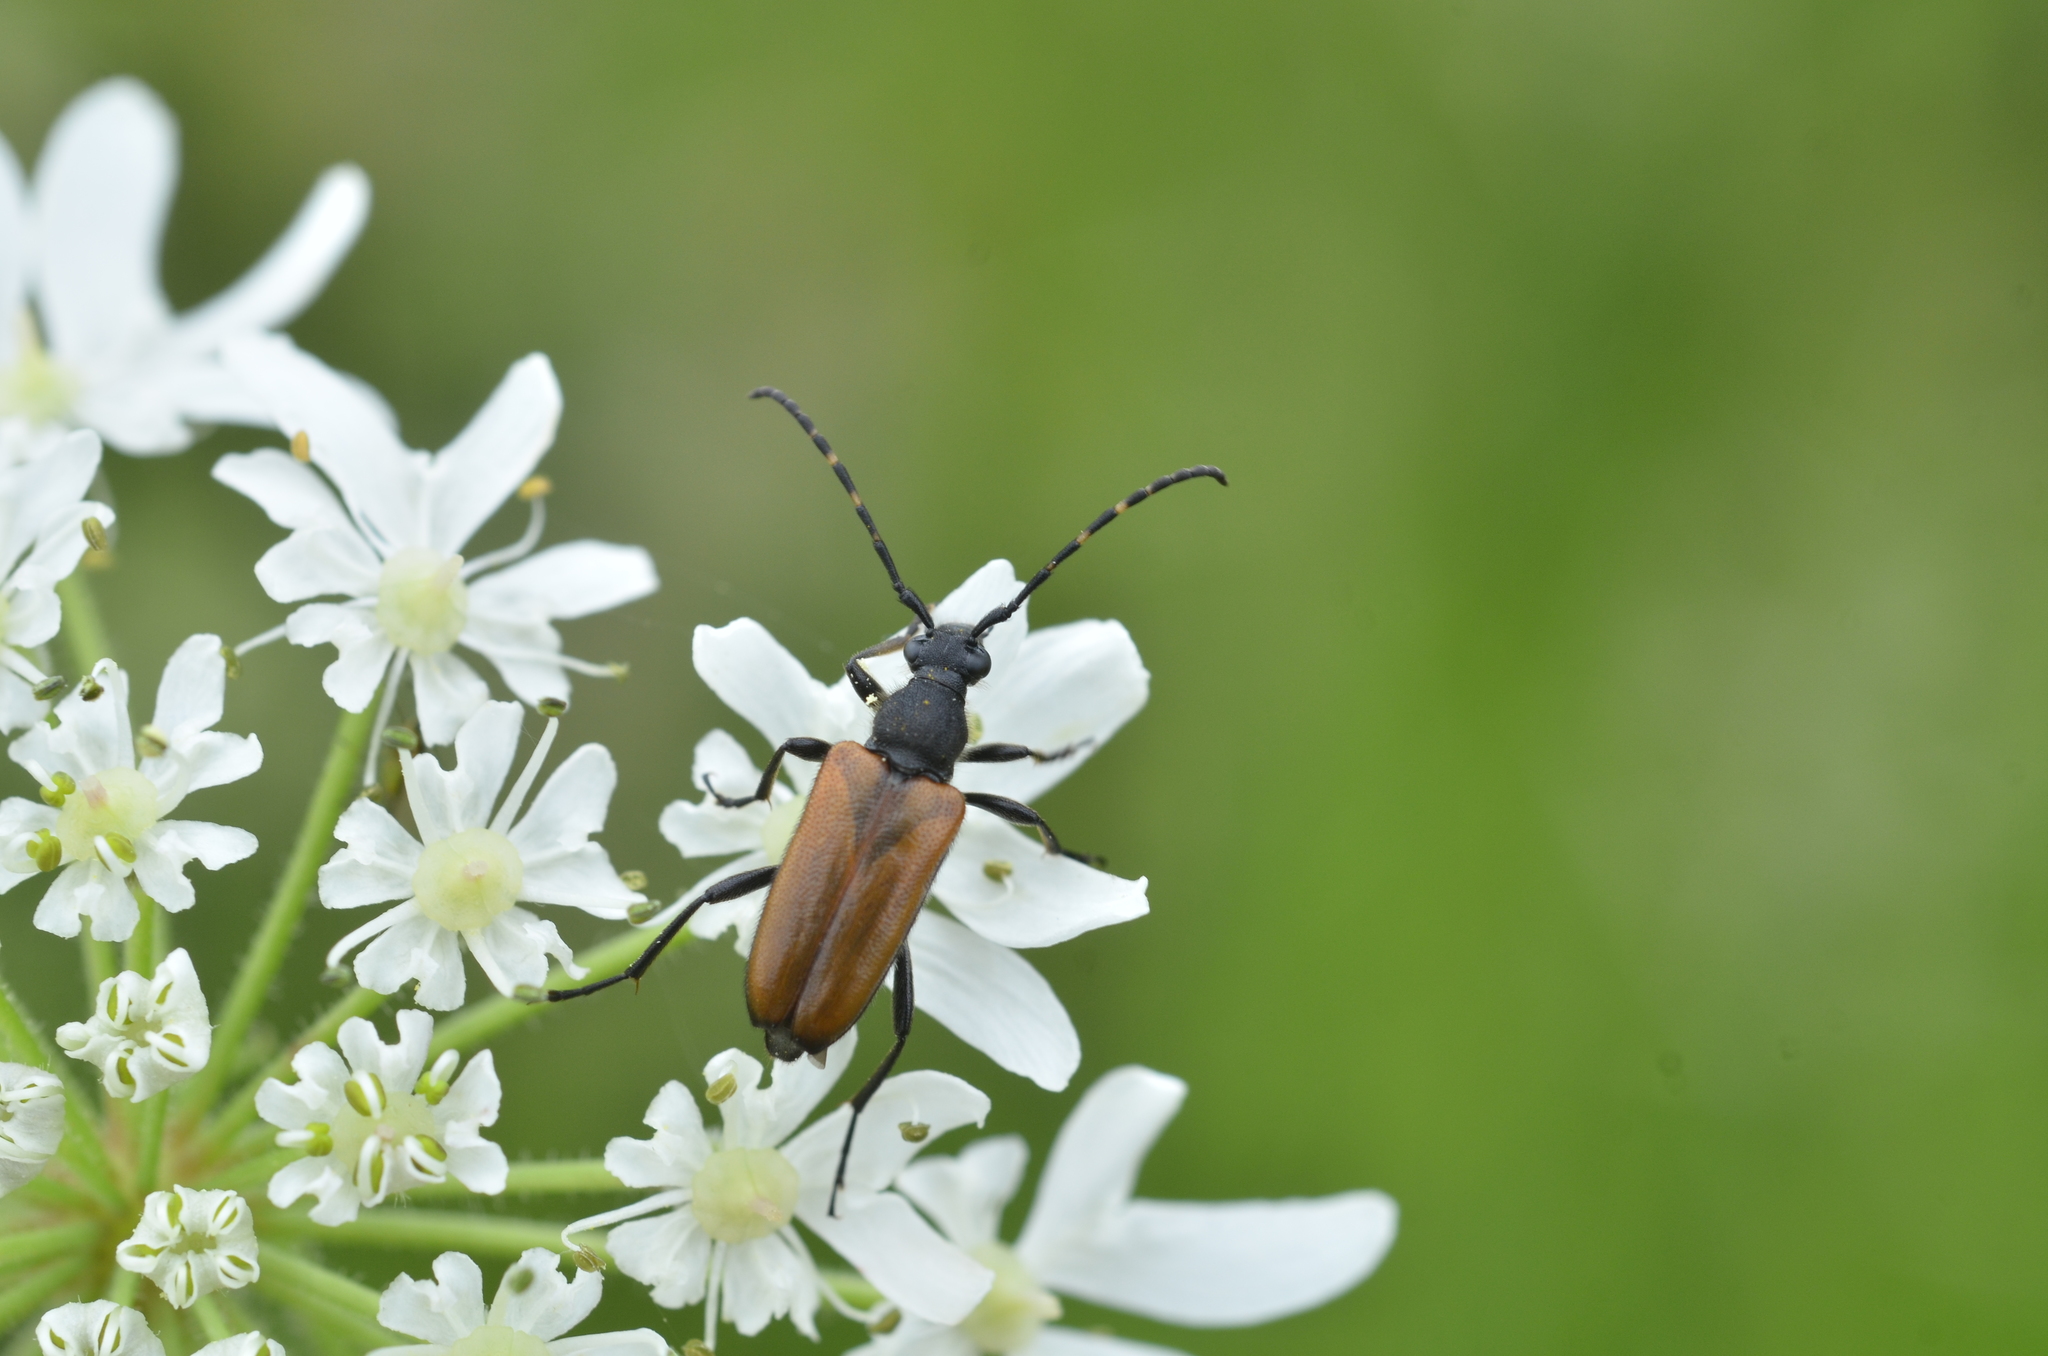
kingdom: Animalia
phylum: Arthropoda
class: Insecta
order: Coleoptera
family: Cerambycidae
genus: Paracorymbia
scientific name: Paracorymbia maculicornis
